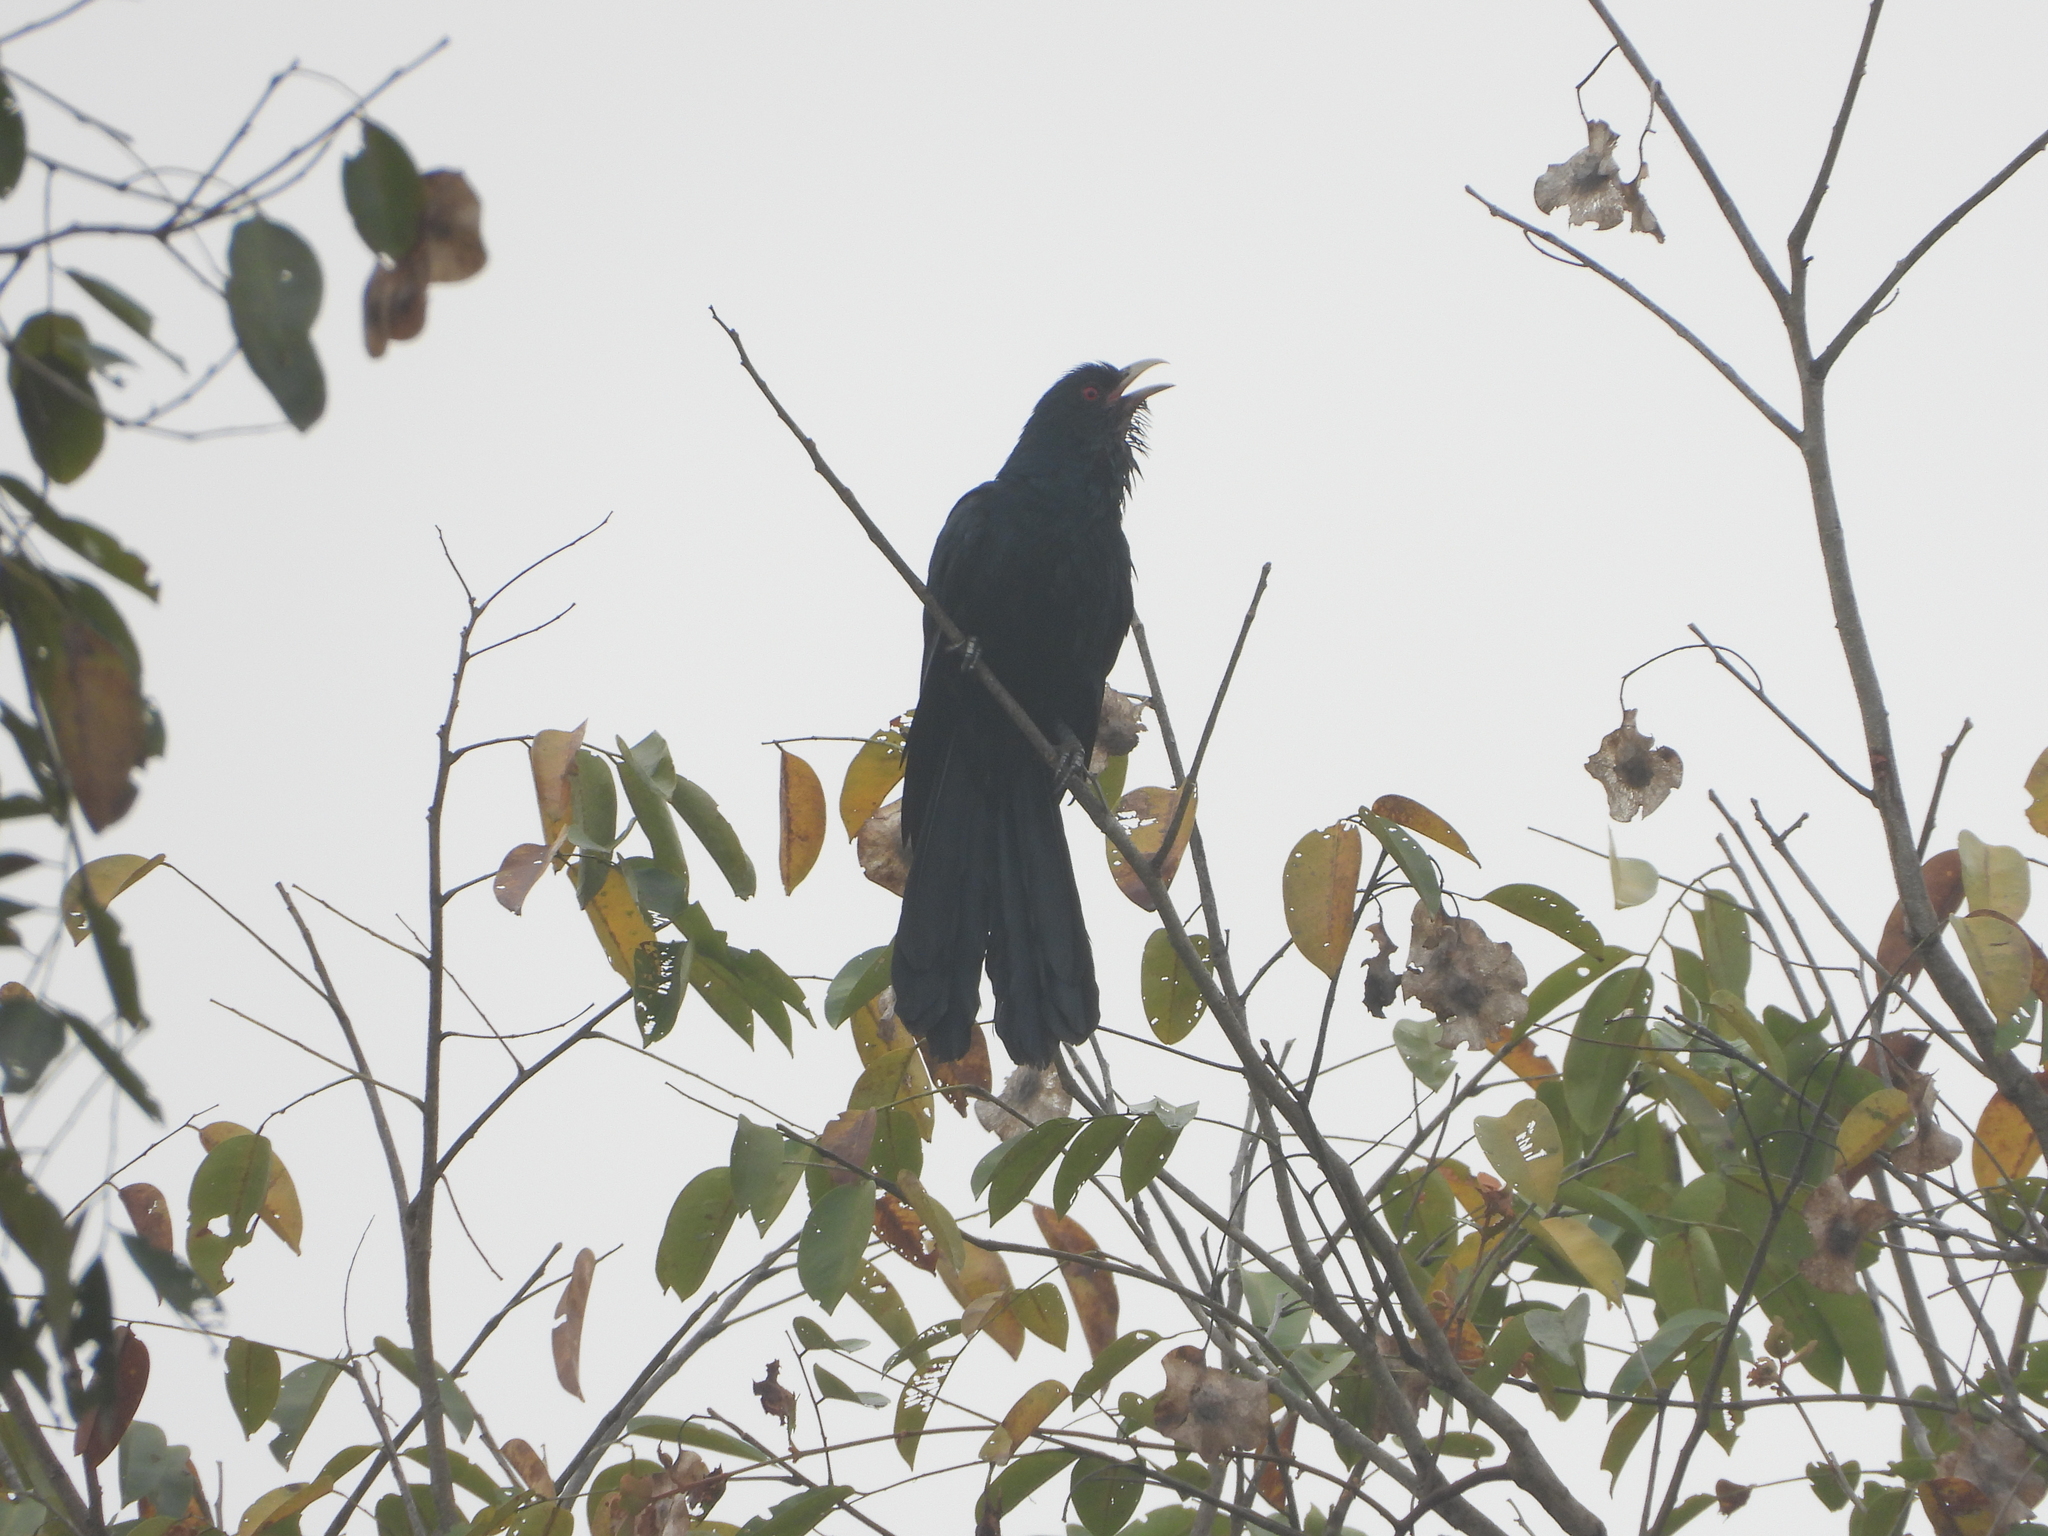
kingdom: Animalia
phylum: Chordata
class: Aves
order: Cuculiformes
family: Cuculidae
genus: Eudynamys
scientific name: Eudynamys scolopaceus
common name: Asian koel
